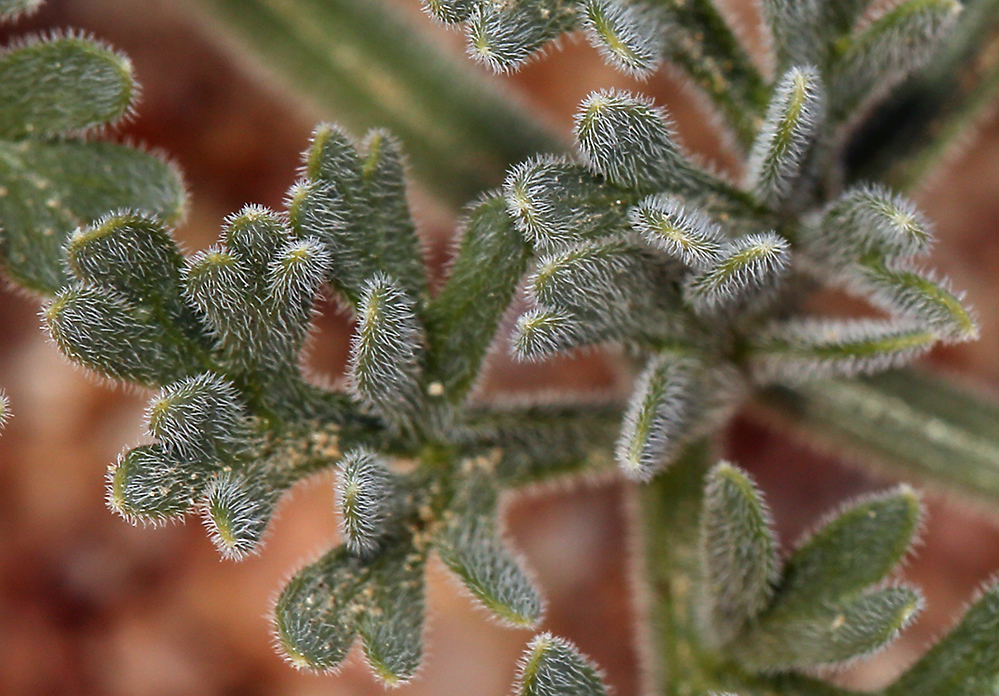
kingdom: Plantae
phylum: Tracheophyta
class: Magnoliopsida
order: Apiales
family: Apiaceae
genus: Lomatium
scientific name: Lomatium mohavense
